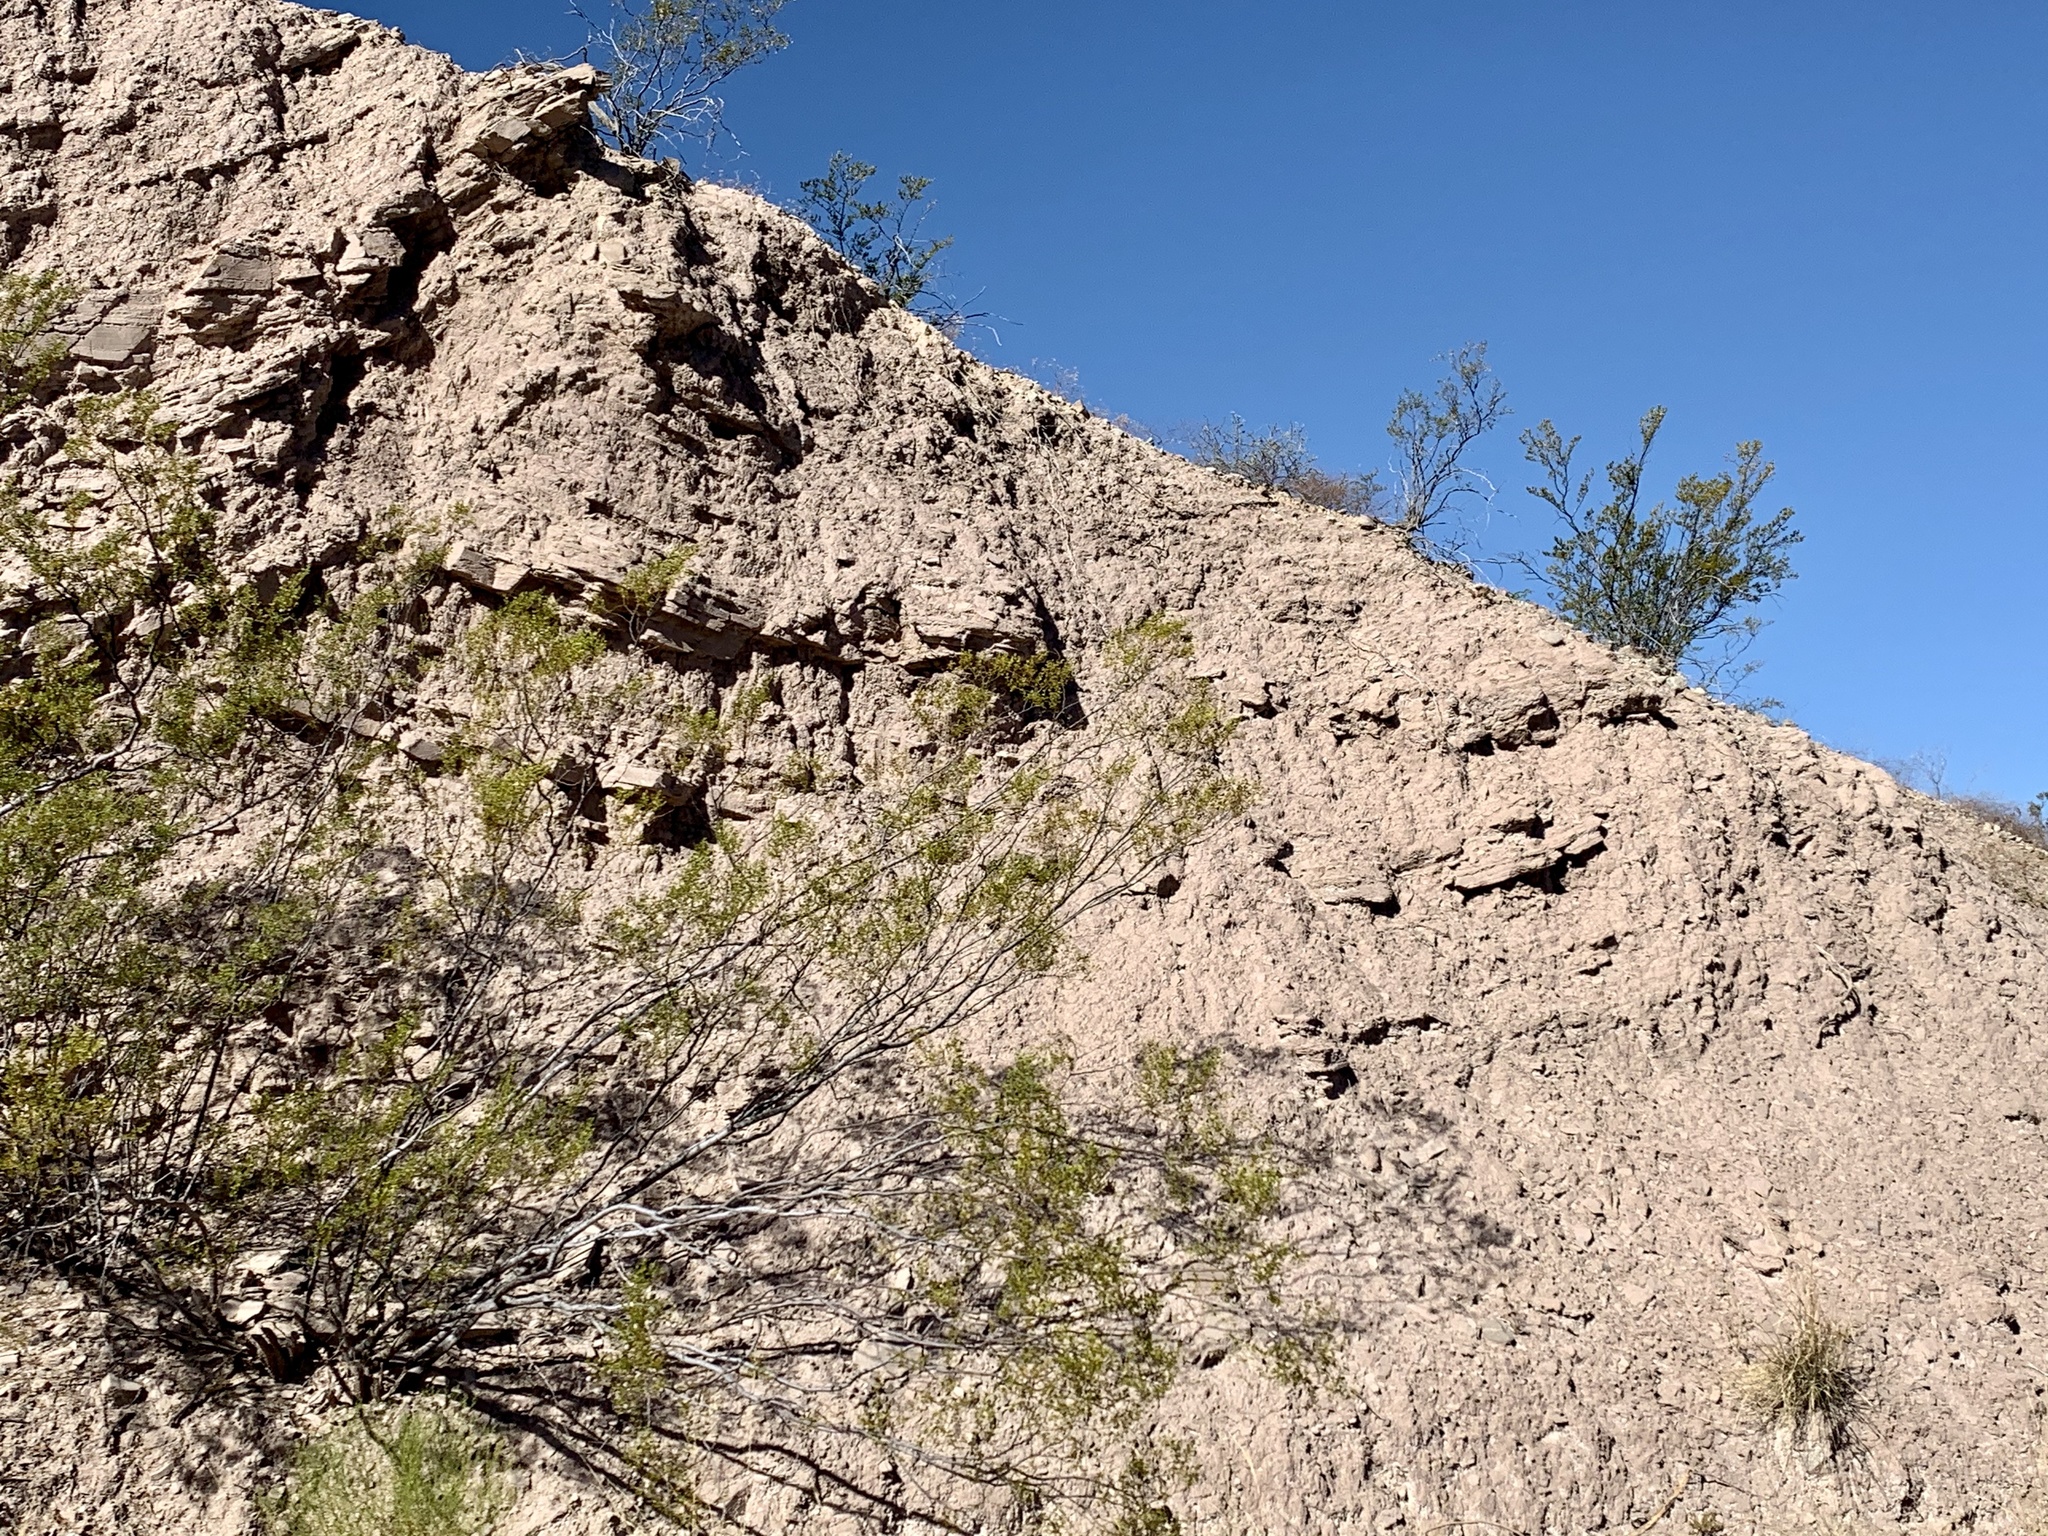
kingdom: Plantae
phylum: Tracheophyta
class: Magnoliopsida
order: Zygophyllales
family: Zygophyllaceae
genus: Larrea
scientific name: Larrea tridentata
